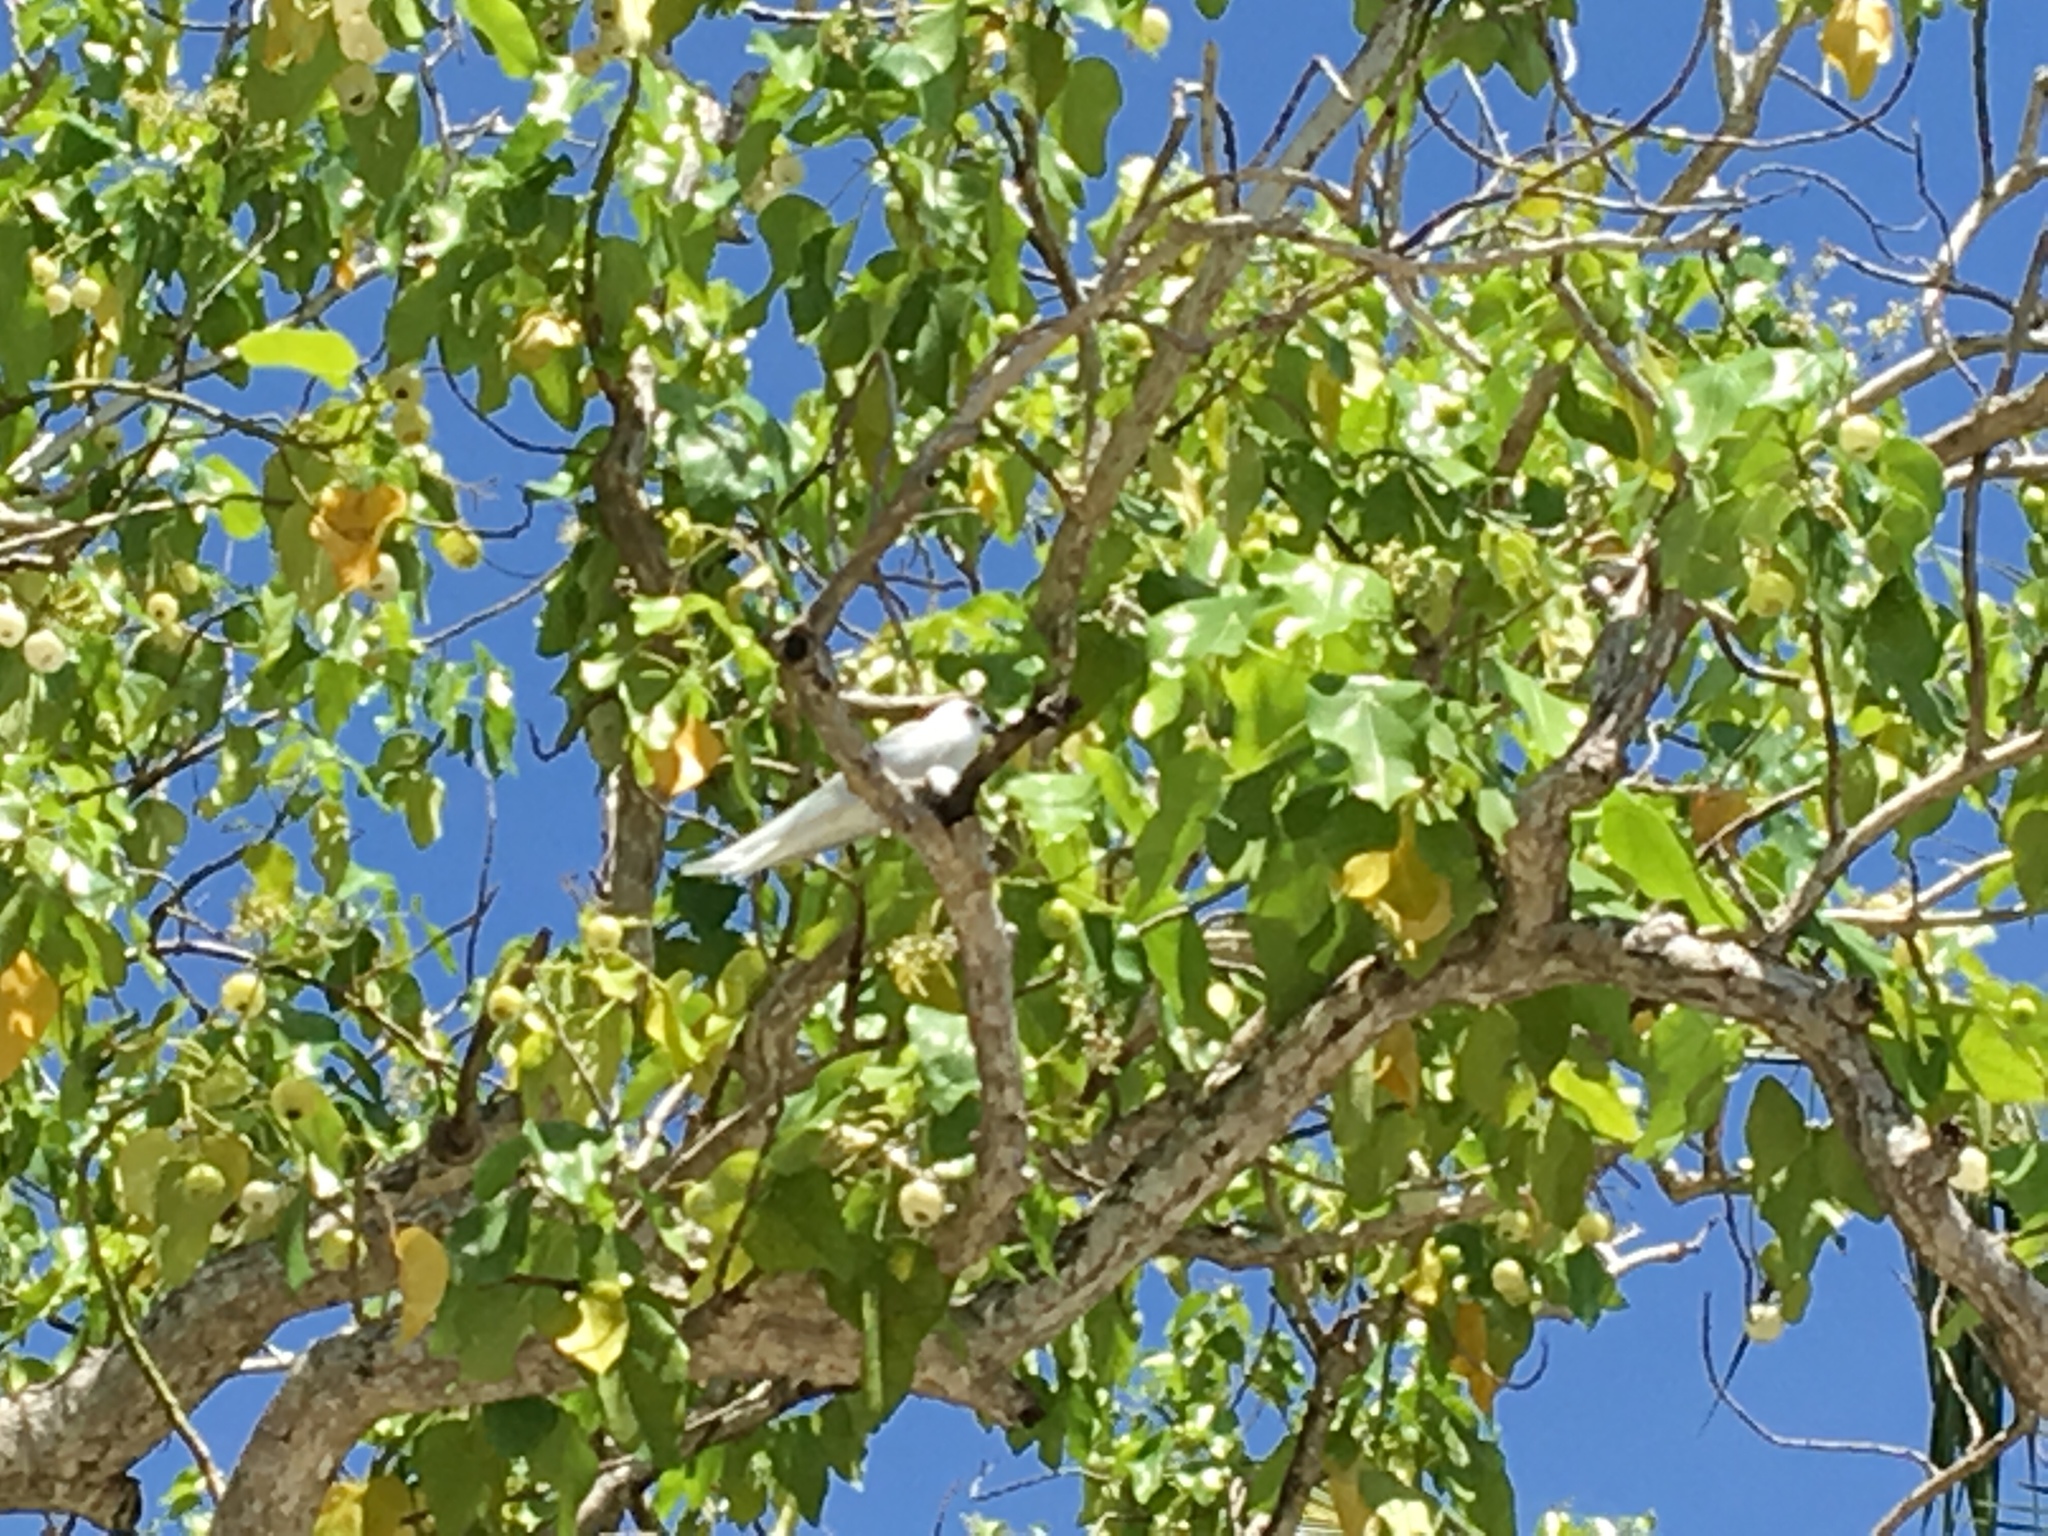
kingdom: Animalia
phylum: Chordata
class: Aves
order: Charadriiformes
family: Laridae
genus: Gygis
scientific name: Gygis alba
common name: White tern
